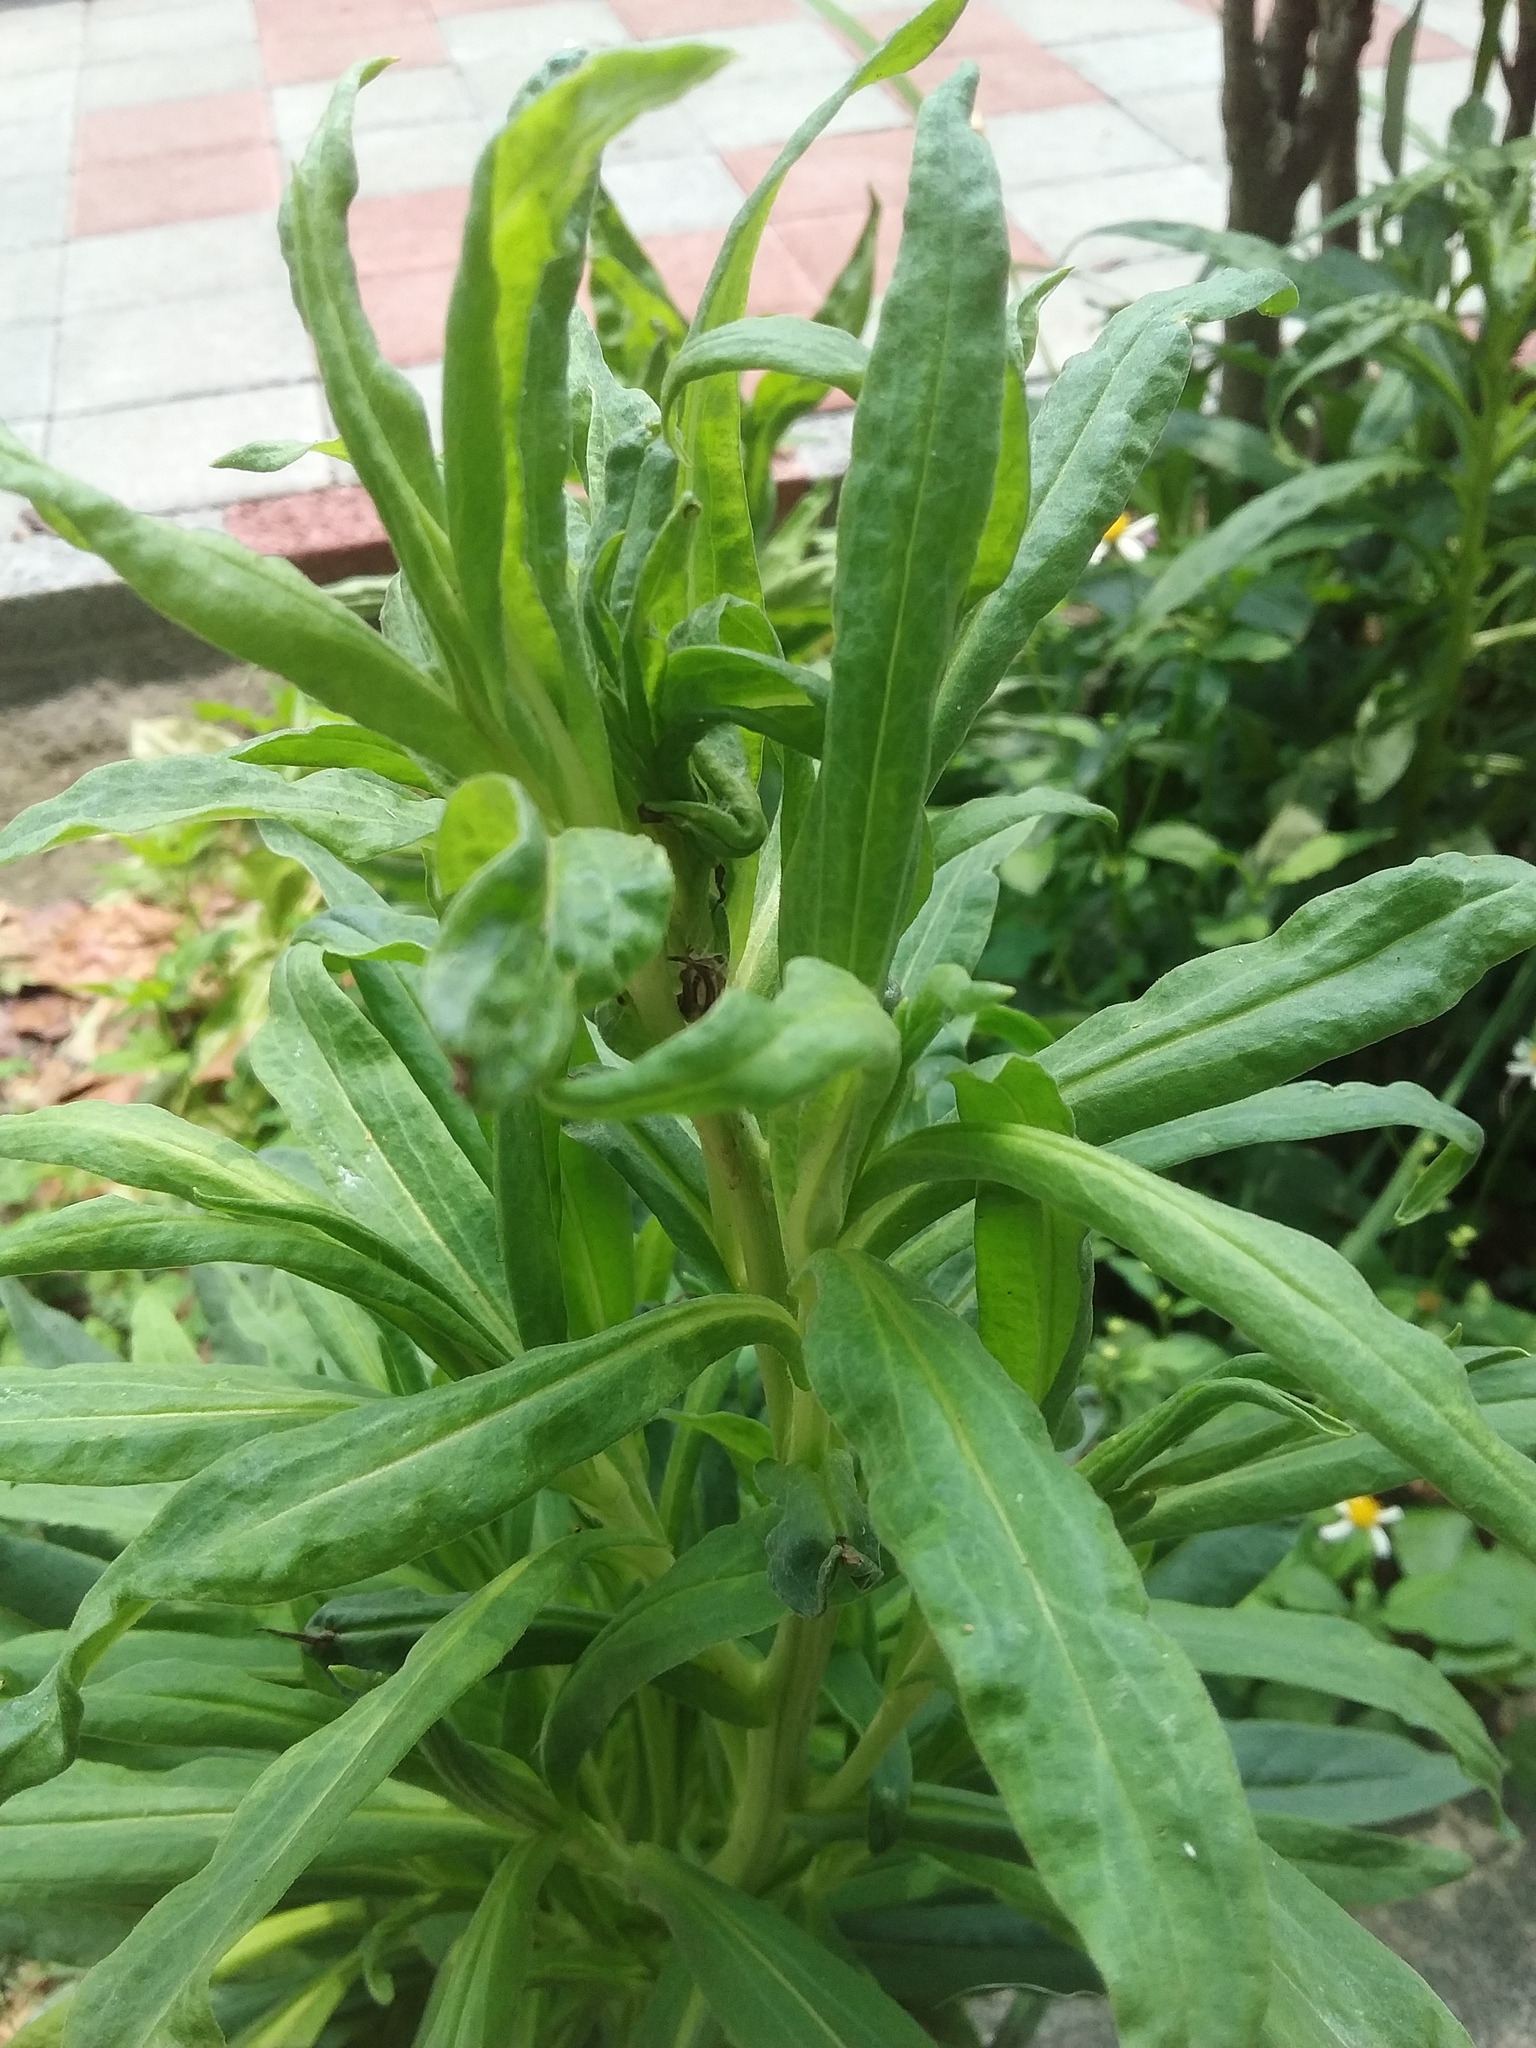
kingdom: Plantae
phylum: Tracheophyta
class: Magnoliopsida
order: Asterales
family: Asteraceae
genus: Symphyotrichum
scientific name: Symphyotrichum subulatum
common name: Annual saltmarsh aster
